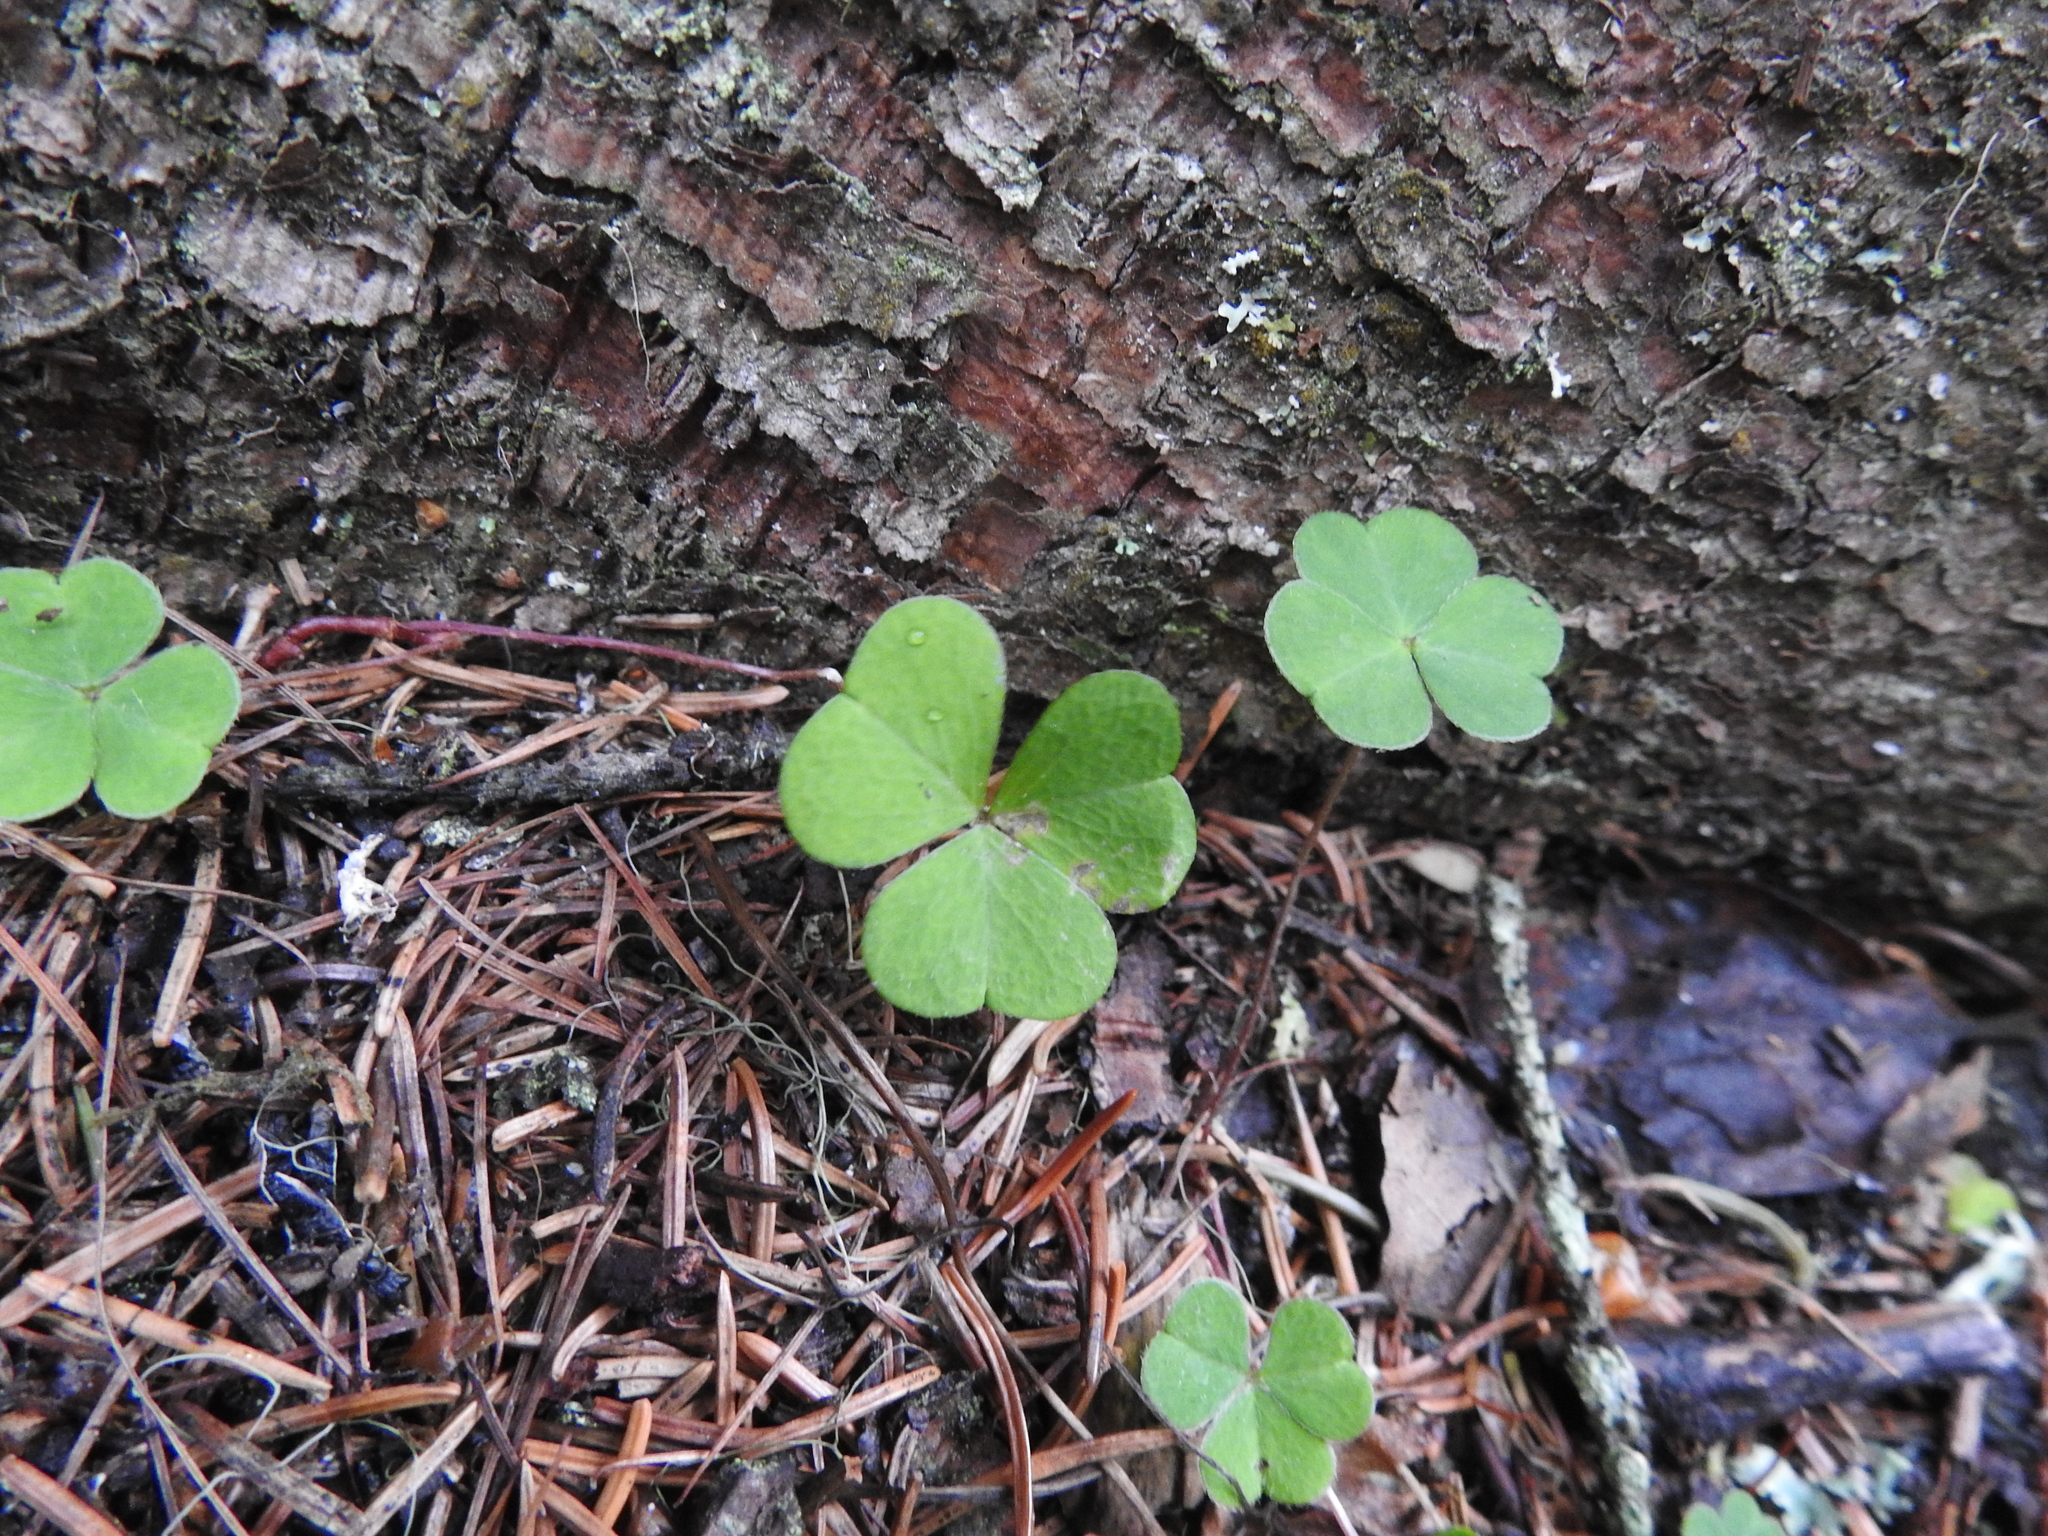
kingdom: Plantae
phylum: Tracheophyta
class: Magnoliopsida
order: Oxalidales
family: Oxalidaceae
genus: Oxalis
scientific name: Oxalis acetosella
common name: Wood-sorrel
